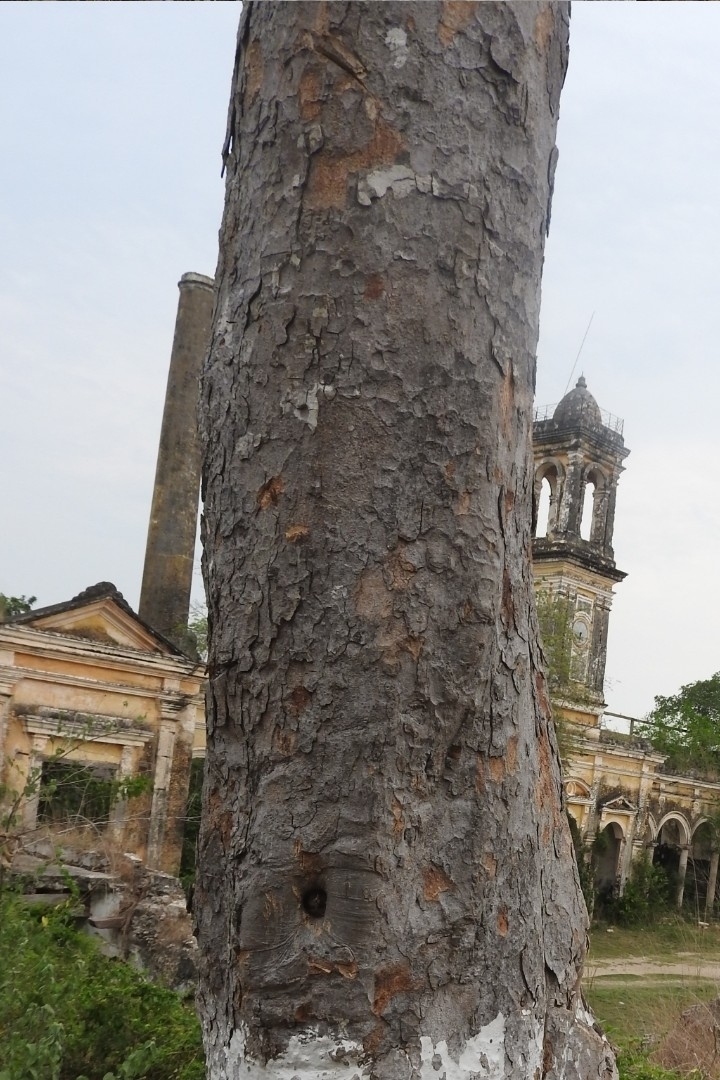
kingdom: Plantae
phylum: Tracheophyta
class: Magnoliopsida
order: Rosales
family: Moraceae
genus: Brosimum
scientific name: Brosimum alicastrum
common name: Breadnut
